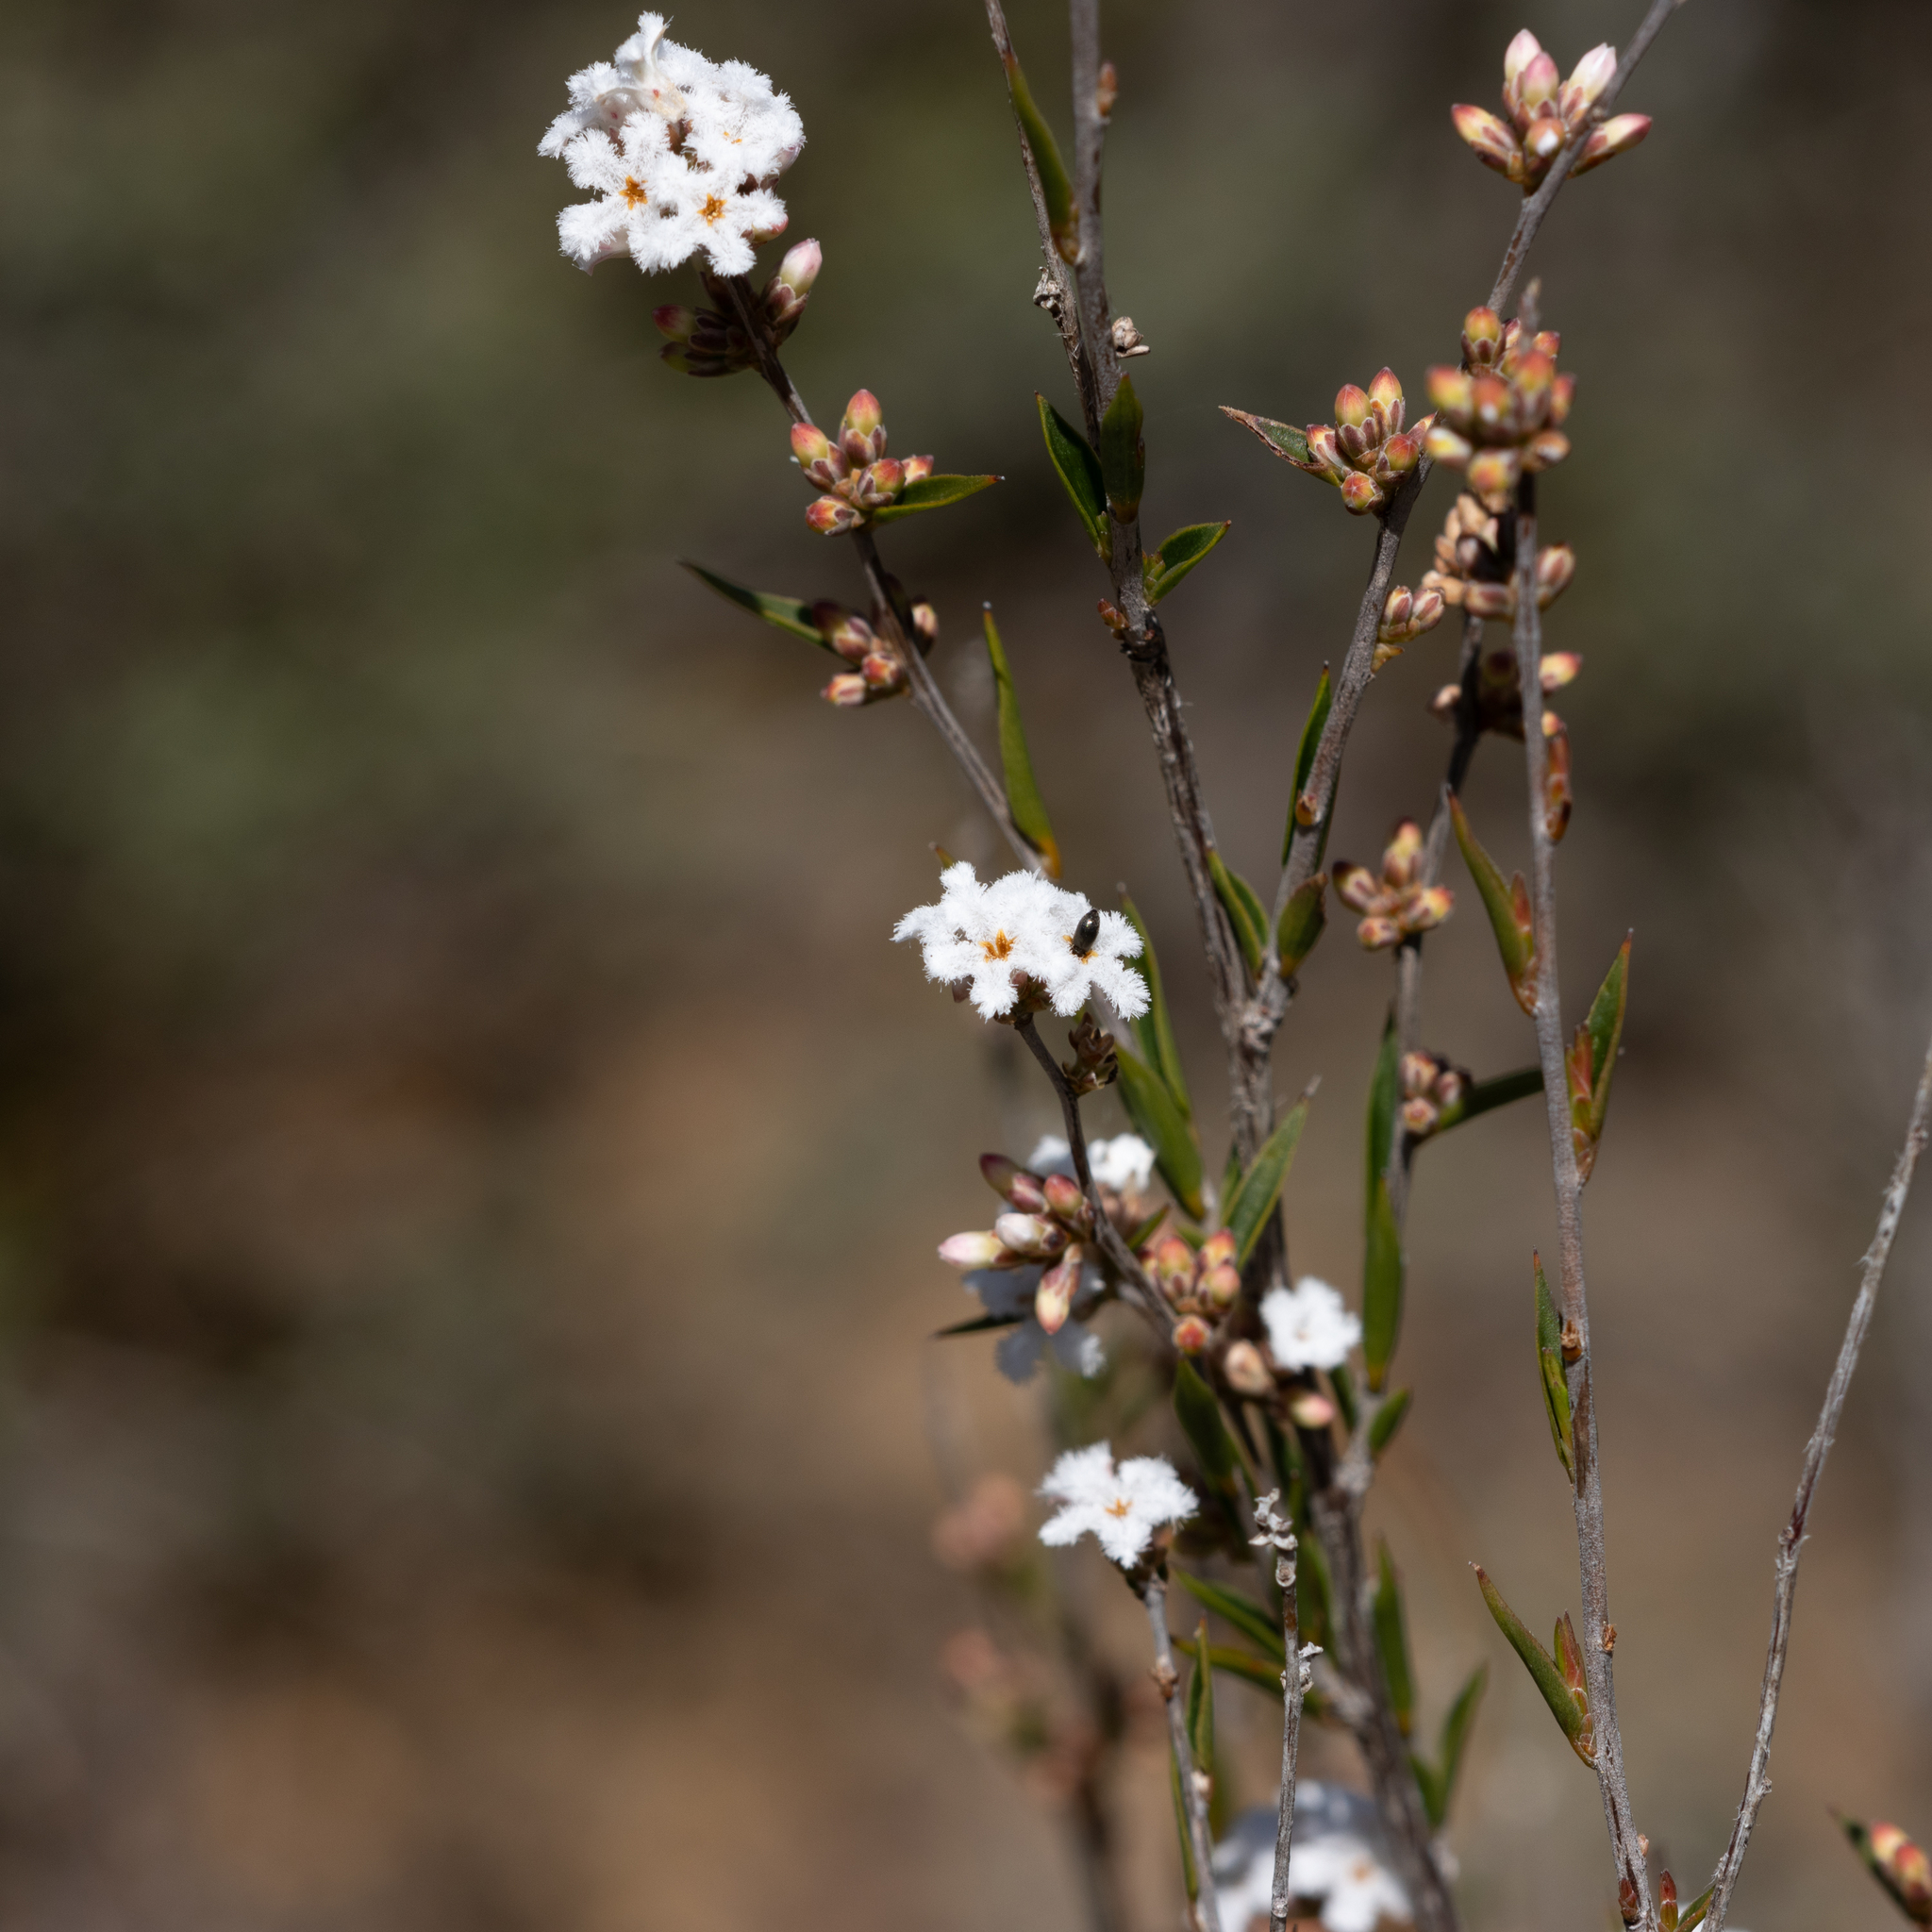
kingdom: Plantae
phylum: Tracheophyta
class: Magnoliopsida
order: Ericales
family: Ericaceae
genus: Leucopogon
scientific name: Leucopogon virgatus
